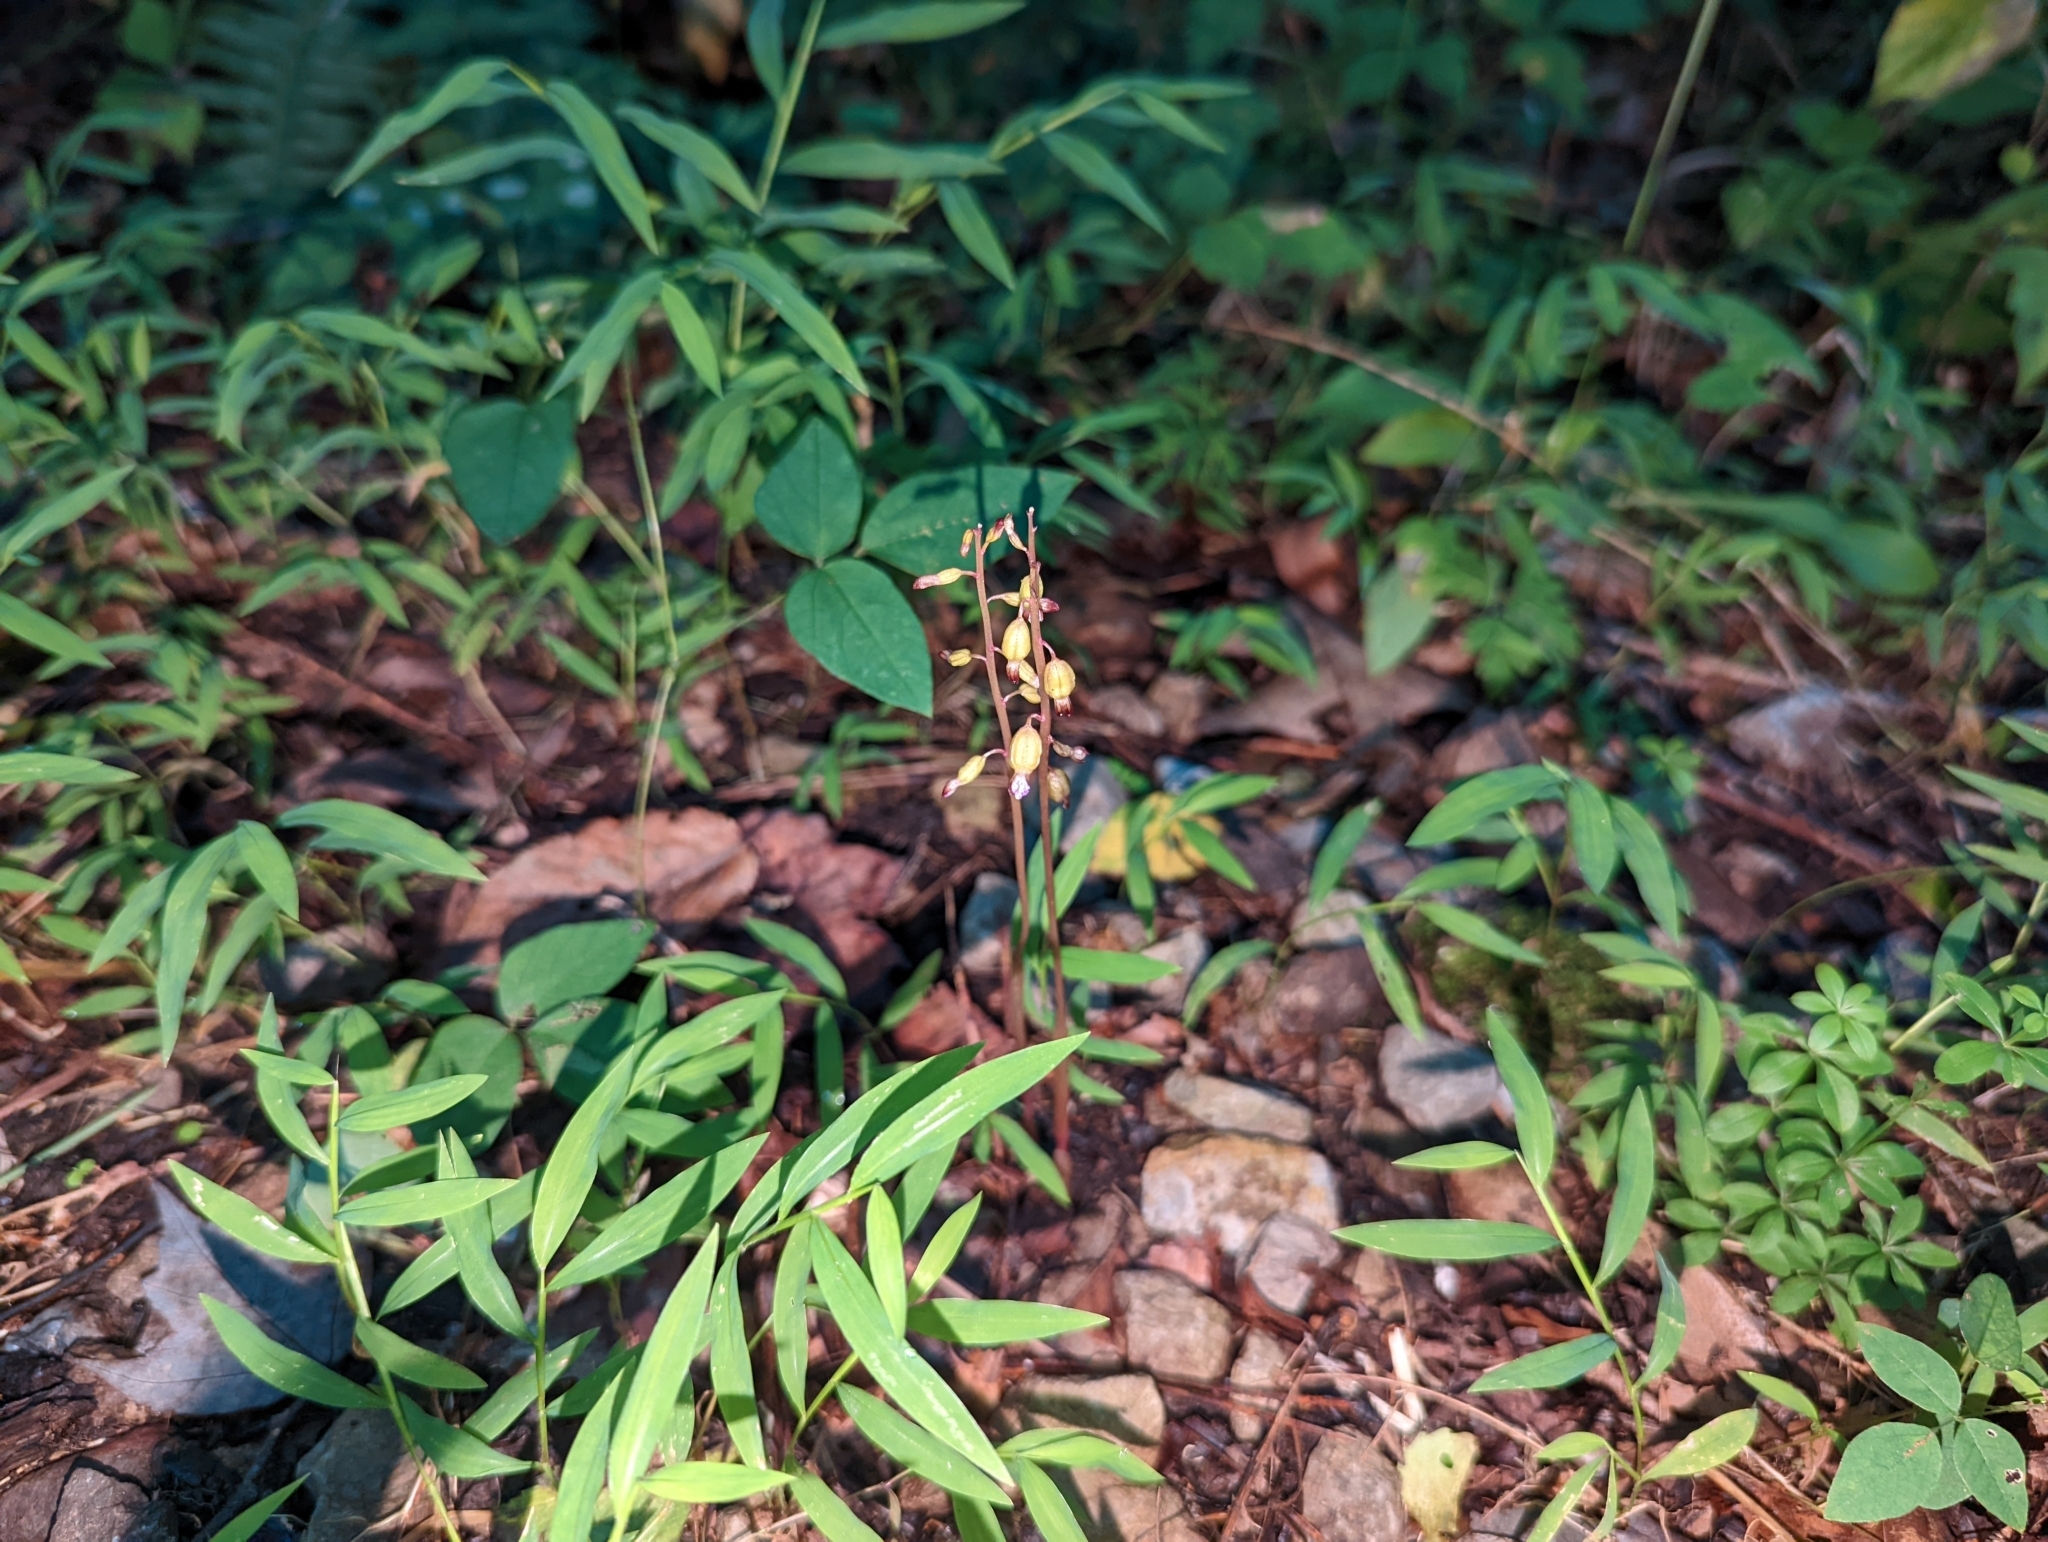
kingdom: Plantae
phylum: Tracheophyta
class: Liliopsida
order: Asparagales
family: Orchidaceae
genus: Corallorhiza
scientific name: Corallorhiza odontorhiza
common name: Autumn coralroot
